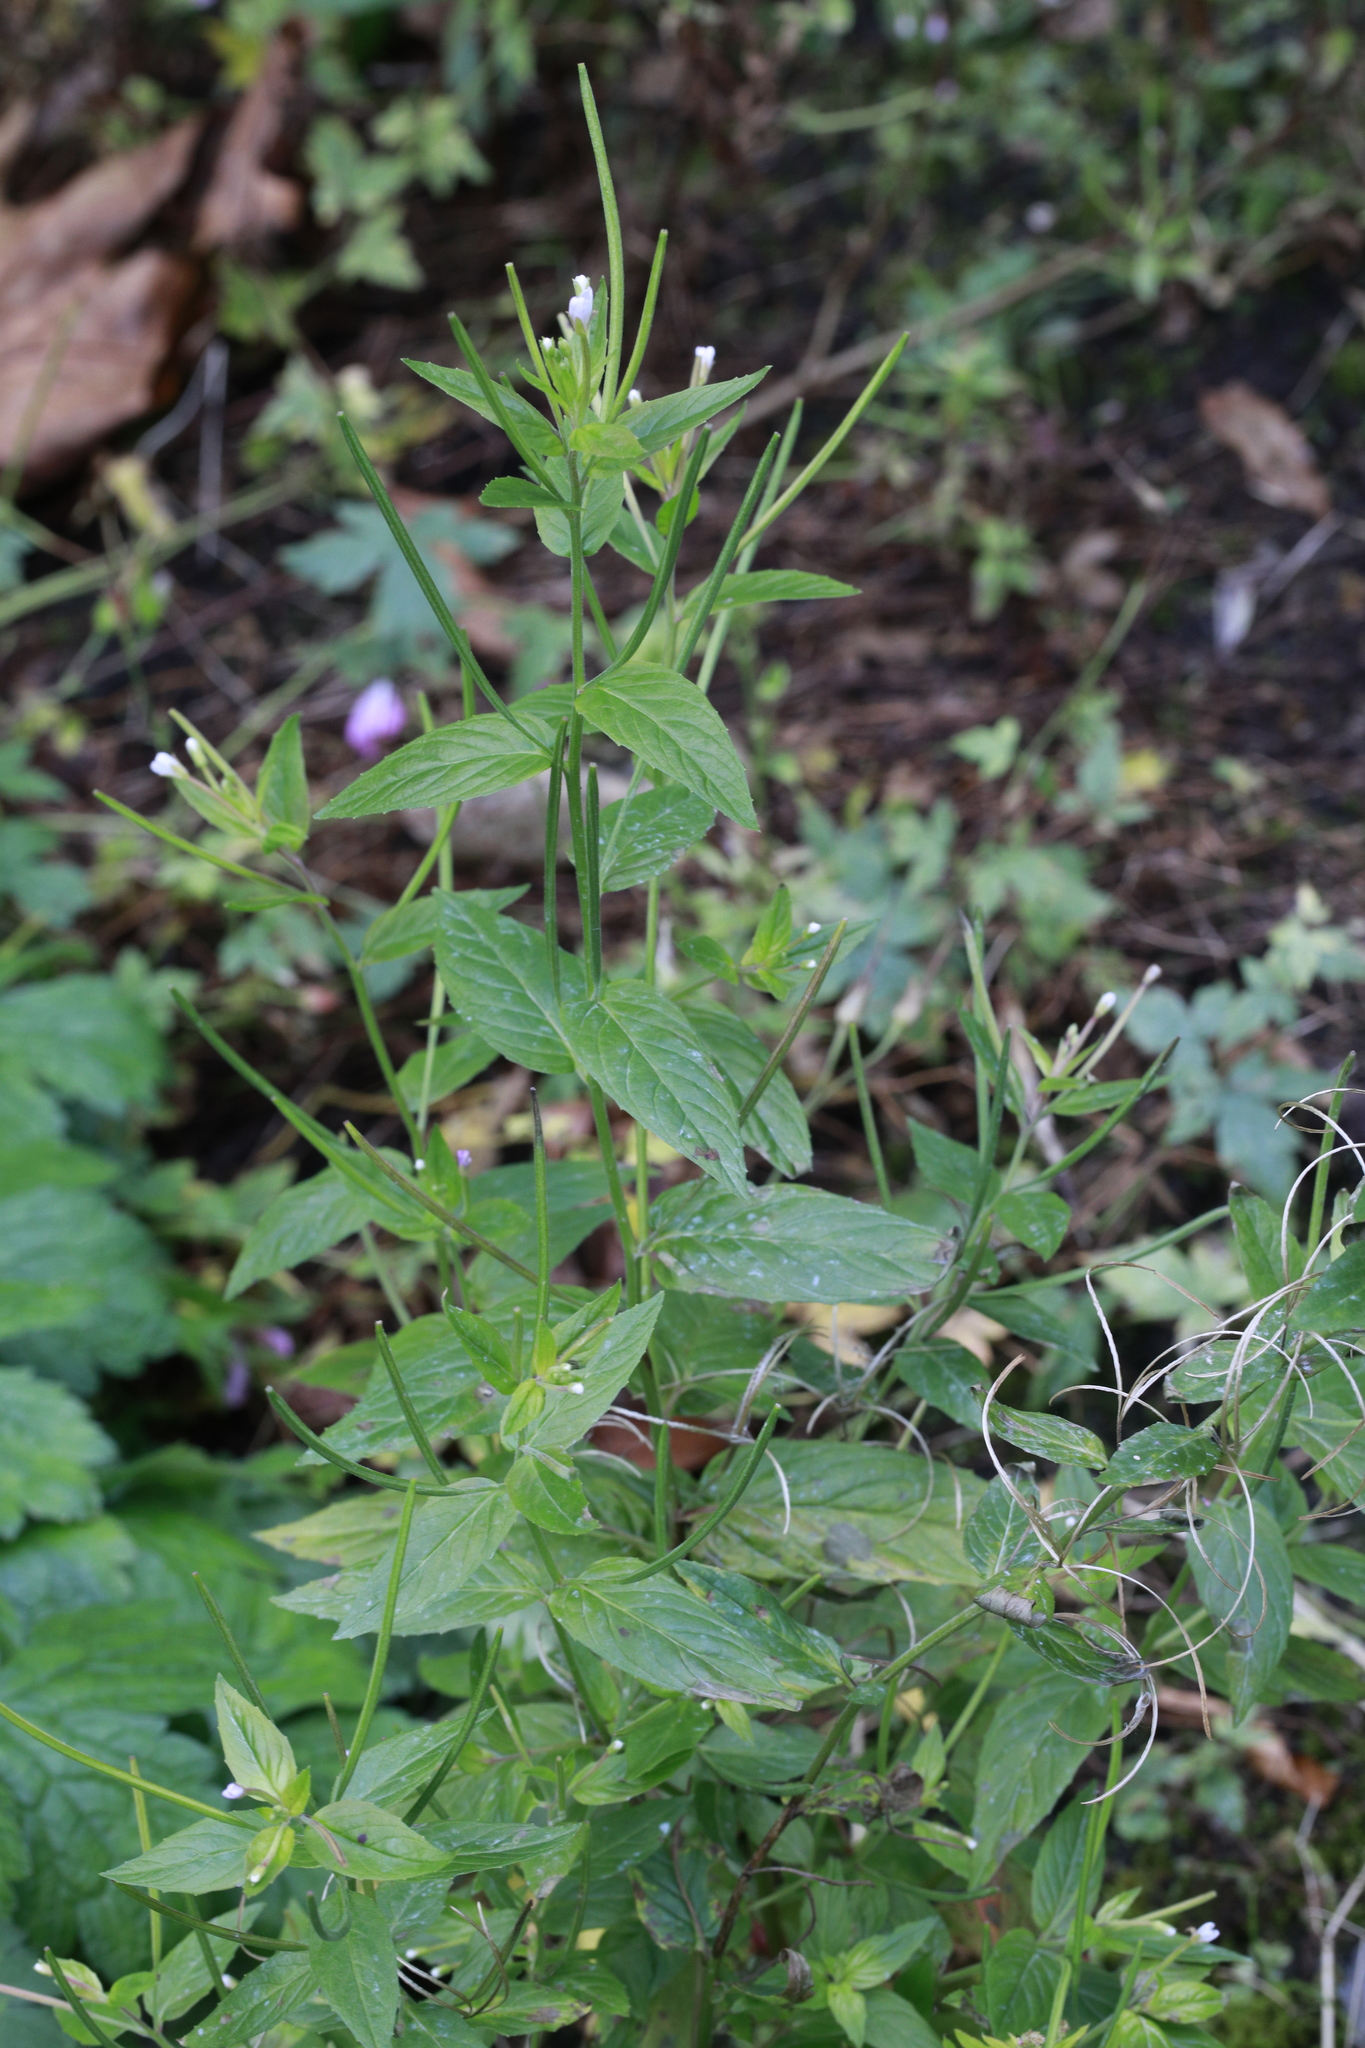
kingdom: Plantae
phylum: Tracheophyta
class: Magnoliopsida
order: Myrtales
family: Onagraceae
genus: Epilobium
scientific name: Epilobium montanum
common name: Broad-leaved willowherb
